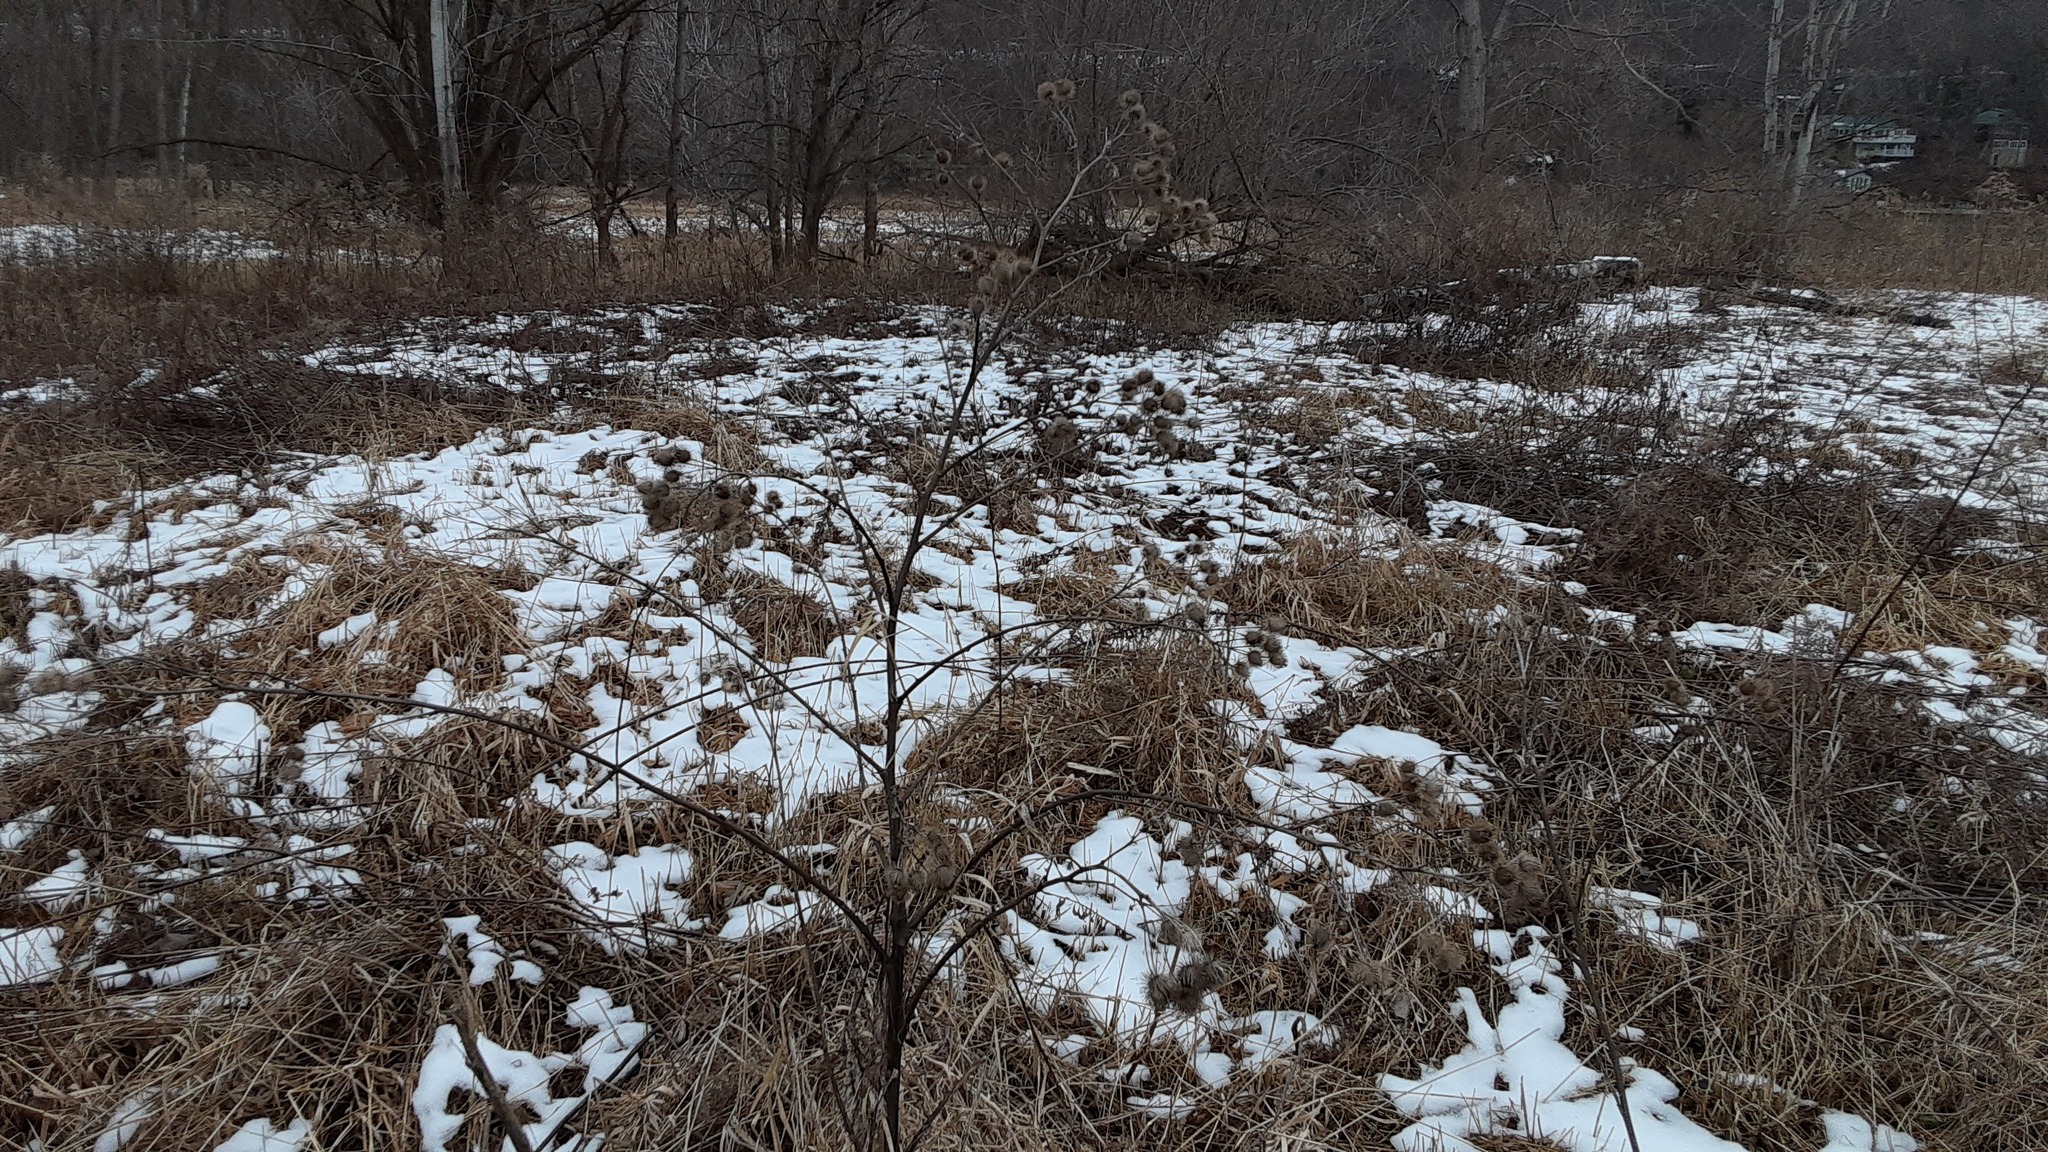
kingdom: Plantae
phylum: Tracheophyta
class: Magnoliopsida
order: Asterales
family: Asteraceae
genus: Arctium
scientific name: Arctium lappa
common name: Greater burdock
